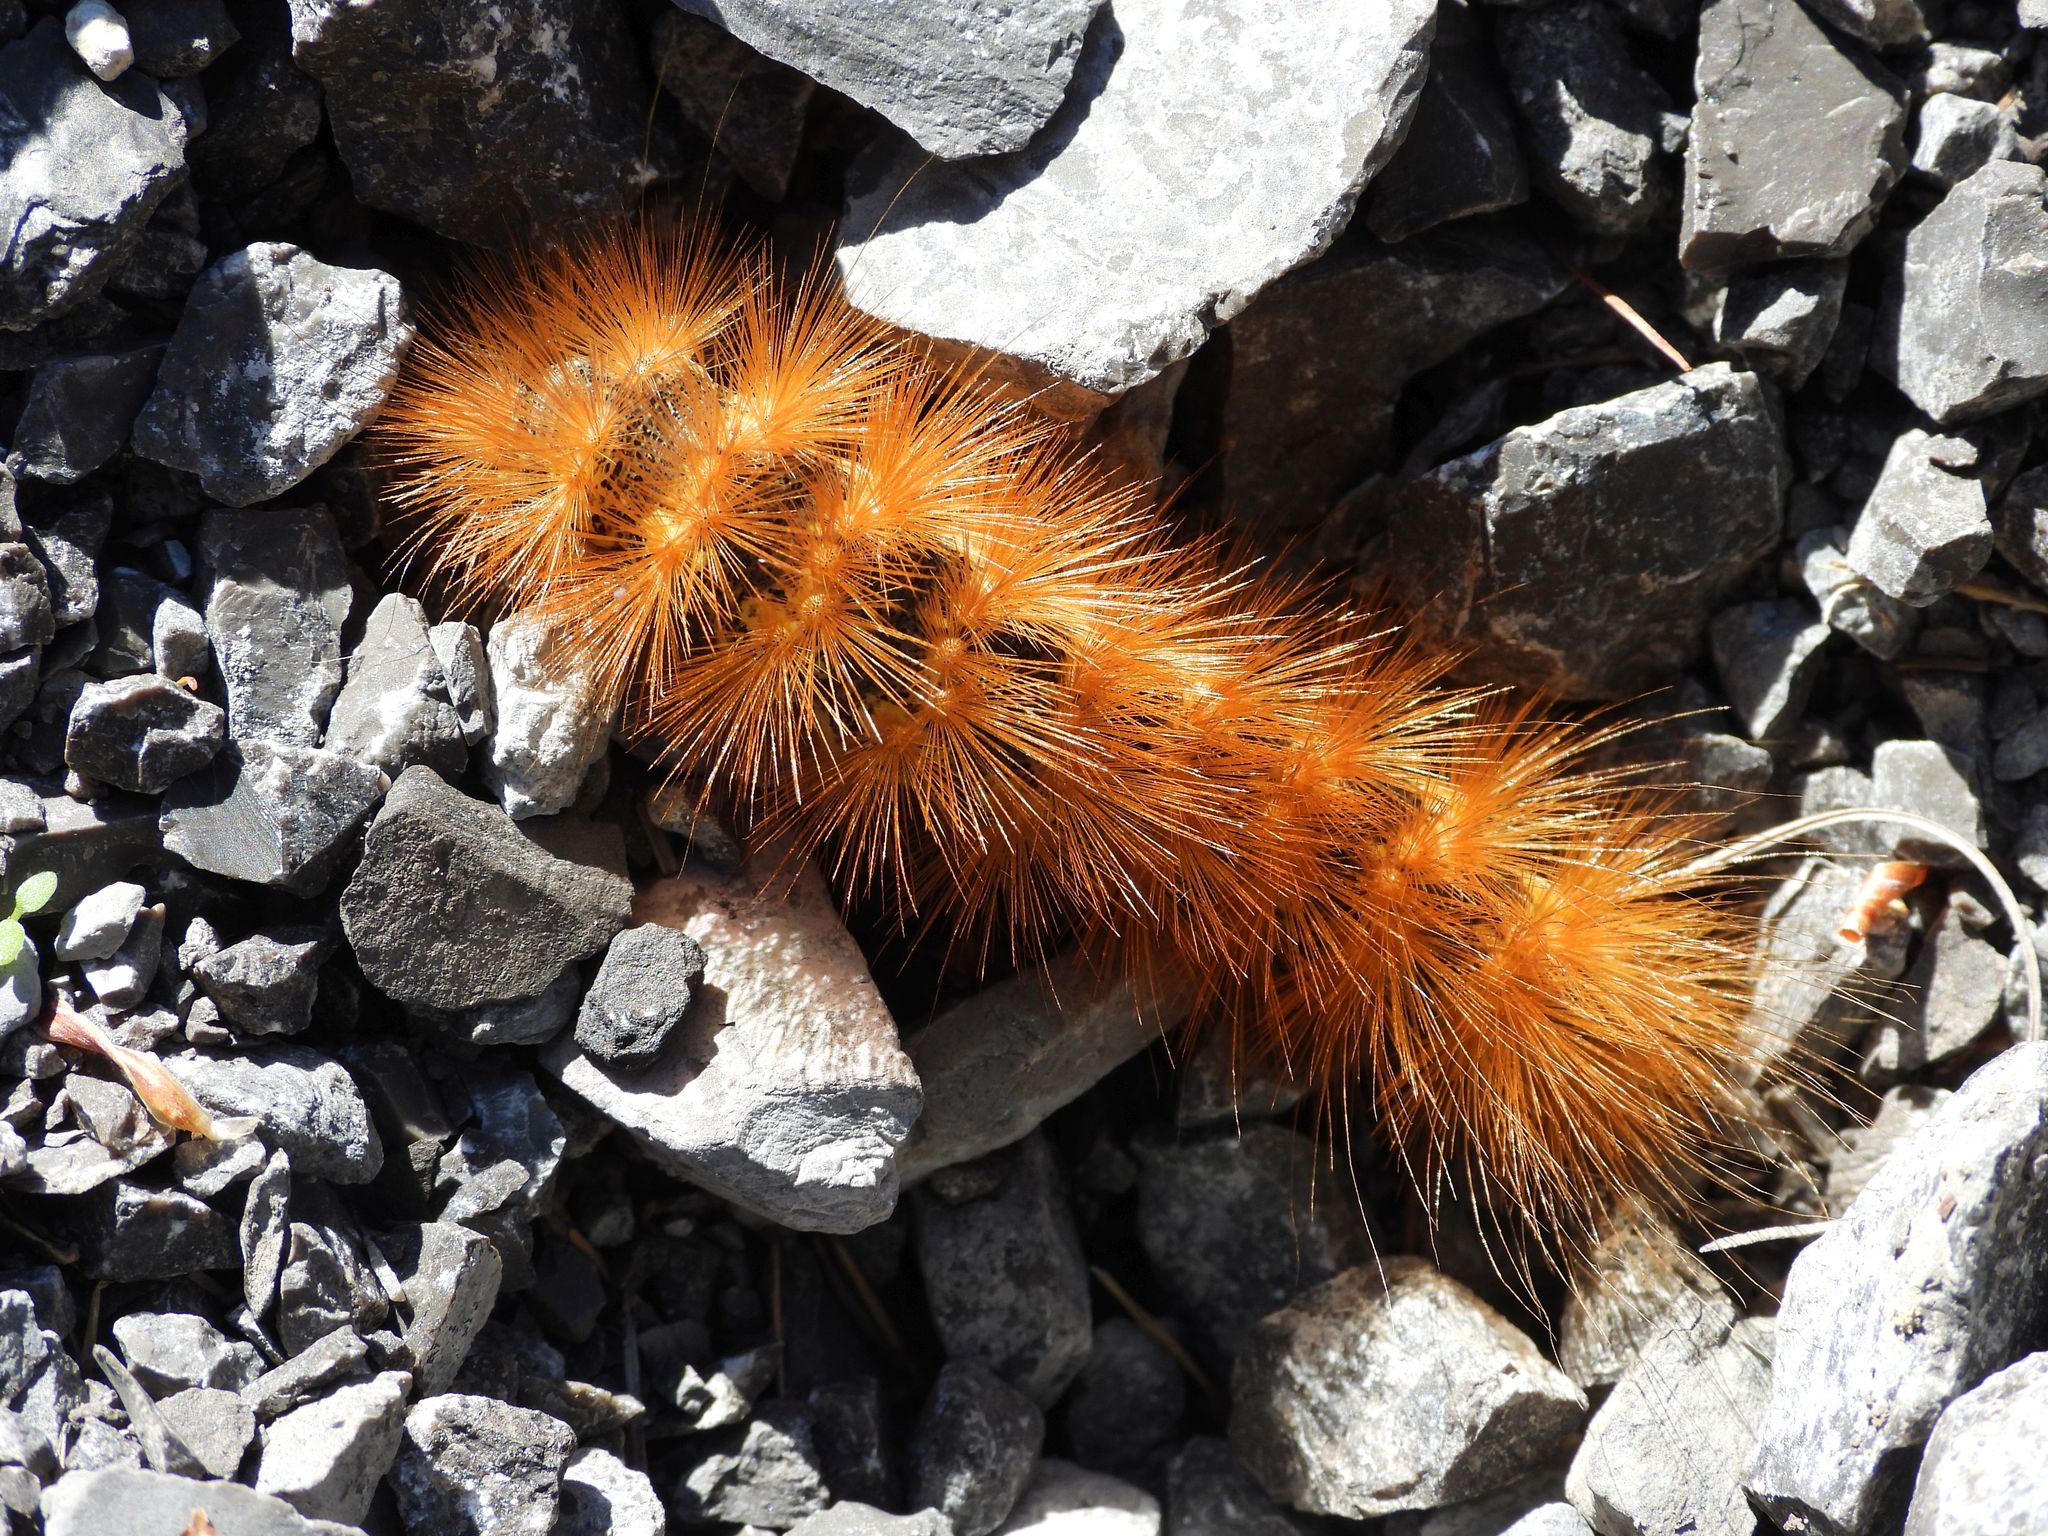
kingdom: Animalia
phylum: Arthropoda
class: Insecta
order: Lepidoptera
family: Erebidae
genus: Spilosoma
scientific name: Spilosoma virginica
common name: Virginia tiger moth
